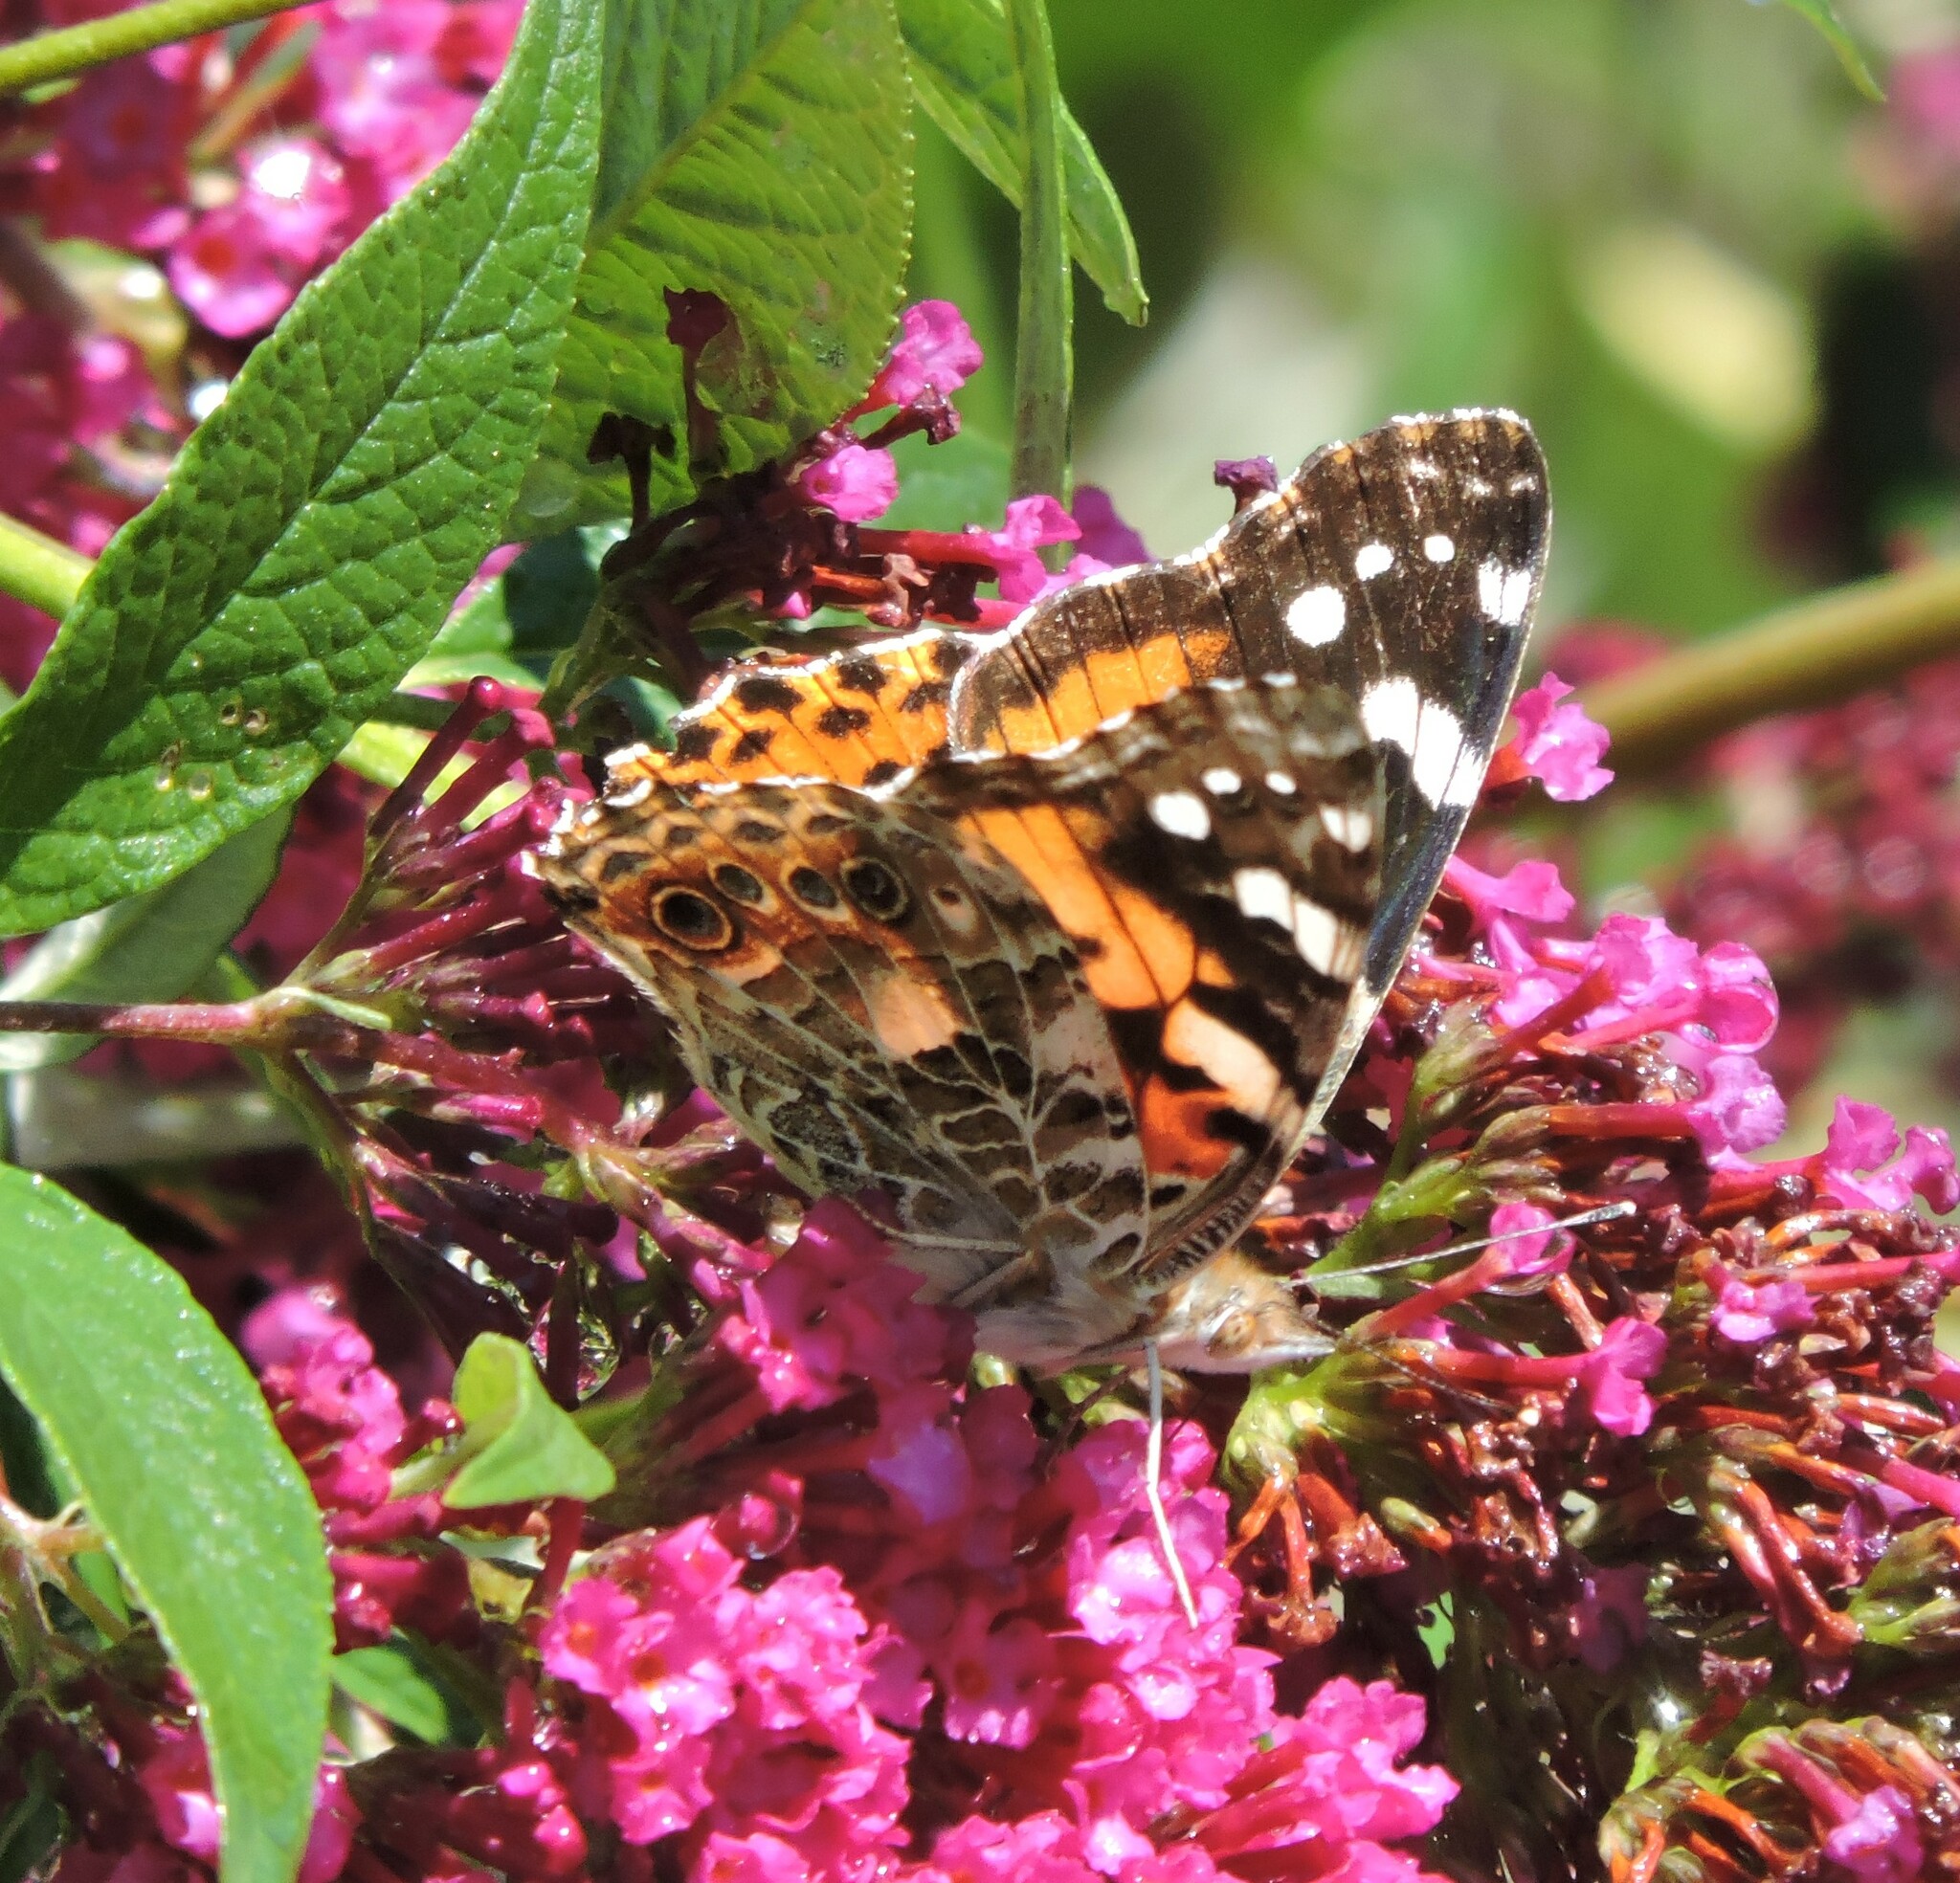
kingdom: Animalia
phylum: Arthropoda
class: Insecta
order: Lepidoptera
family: Nymphalidae
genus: Vanessa
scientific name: Vanessa cardui
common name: Painted lady
